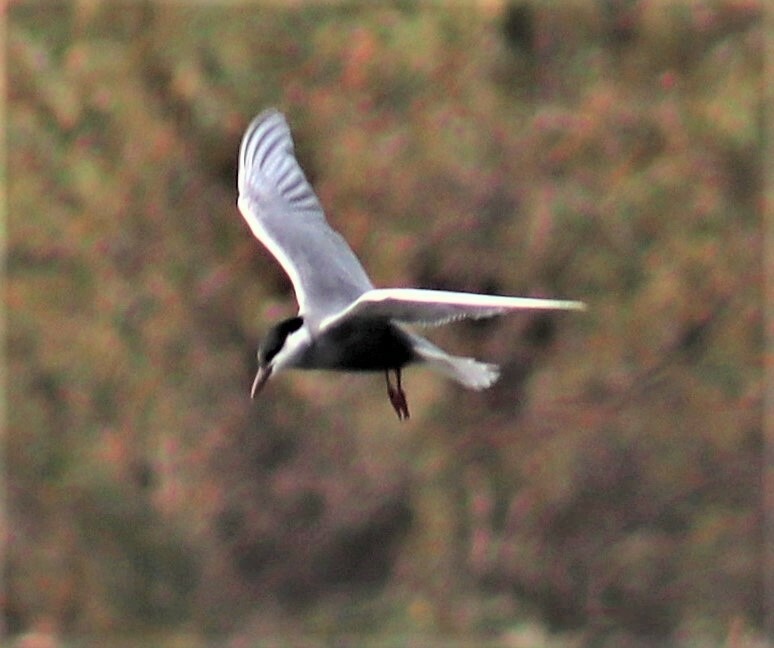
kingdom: Animalia
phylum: Chordata
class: Aves
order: Charadriiformes
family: Laridae
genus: Chlidonias
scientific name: Chlidonias hybrida
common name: Whiskered tern
